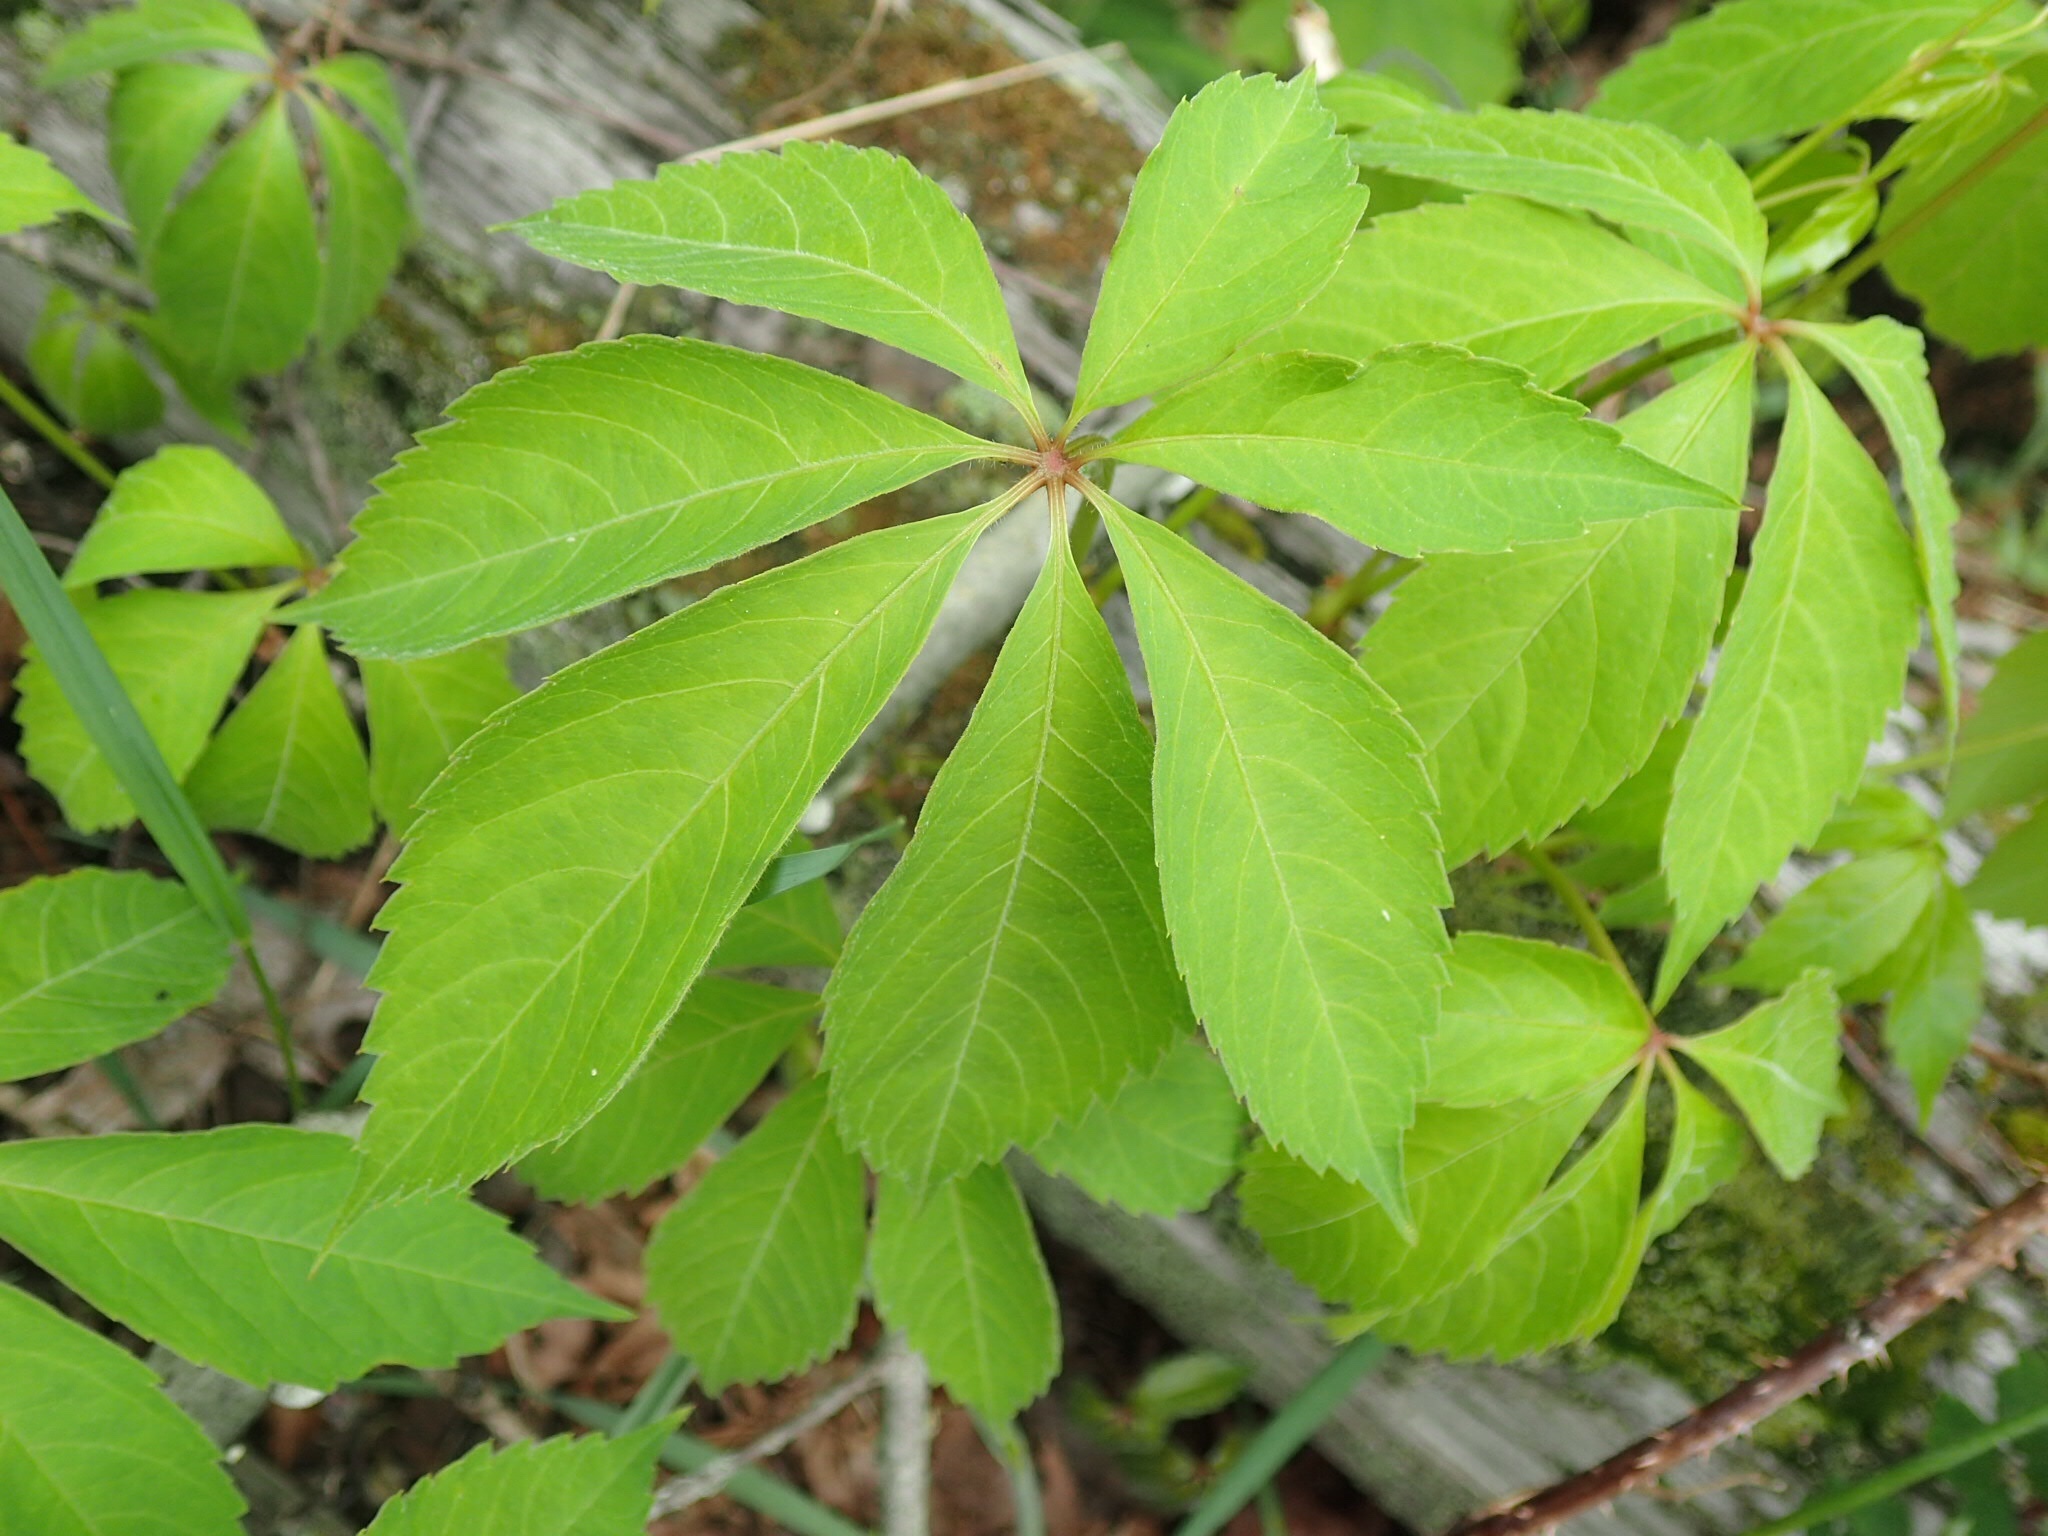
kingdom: Plantae
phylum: Tracheophyta
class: Magnoliopsida
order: Vitales
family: Vitaceae
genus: Parthenocissus
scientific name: Parthenocissus quinquefolia
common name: Virginia-creeper
